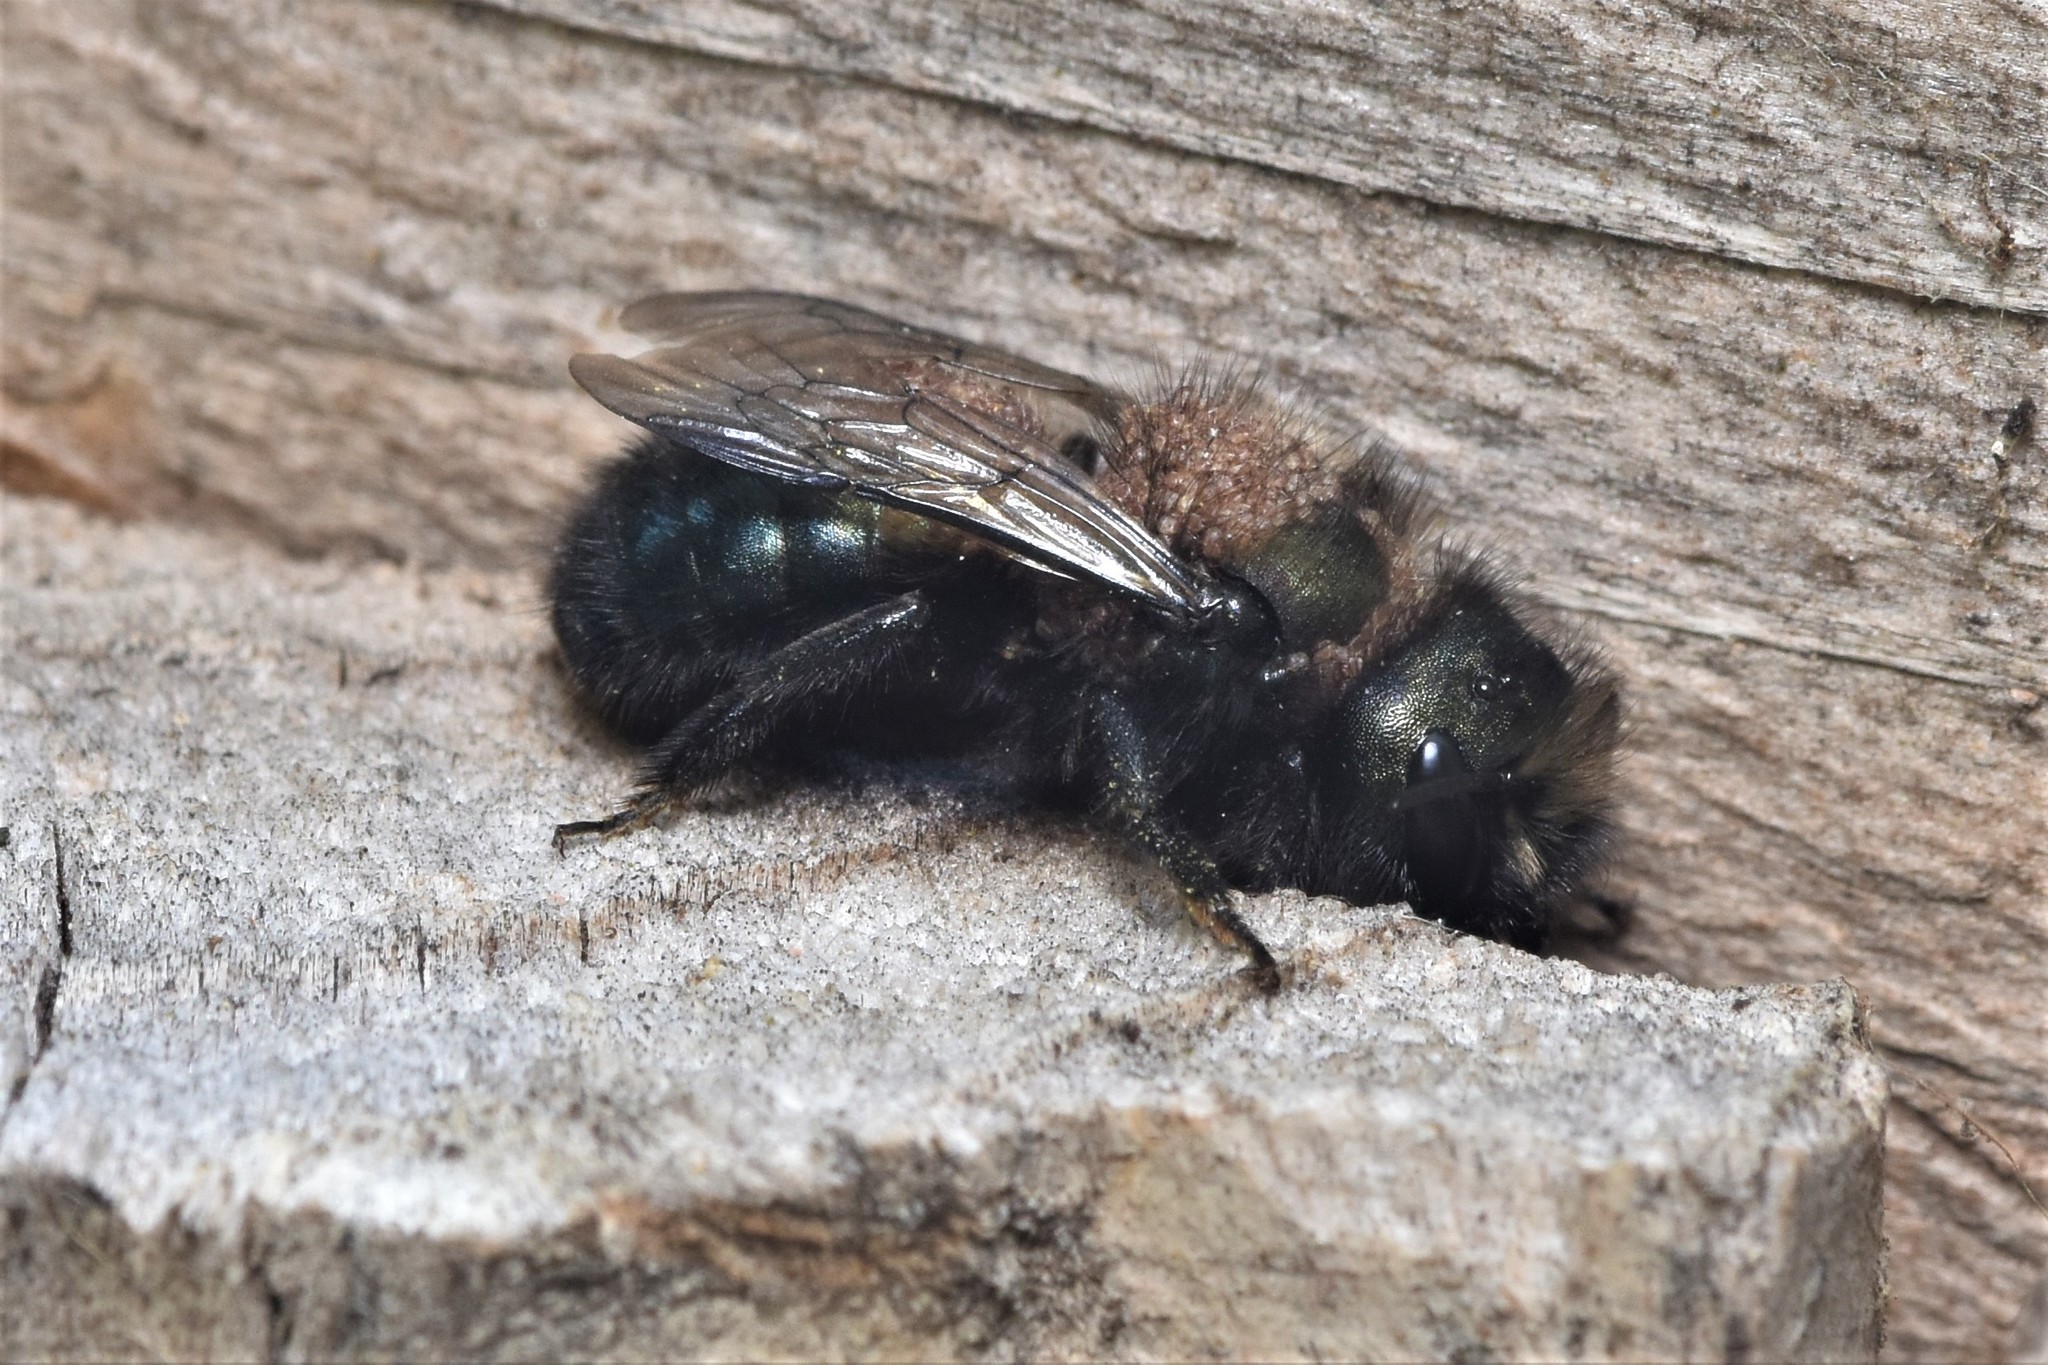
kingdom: Animalia
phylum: Arthropoda
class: Insecta
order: Hymenoptera
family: Megachilidae
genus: Osmia
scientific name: Osmia lignaria
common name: Blue orchard bee
